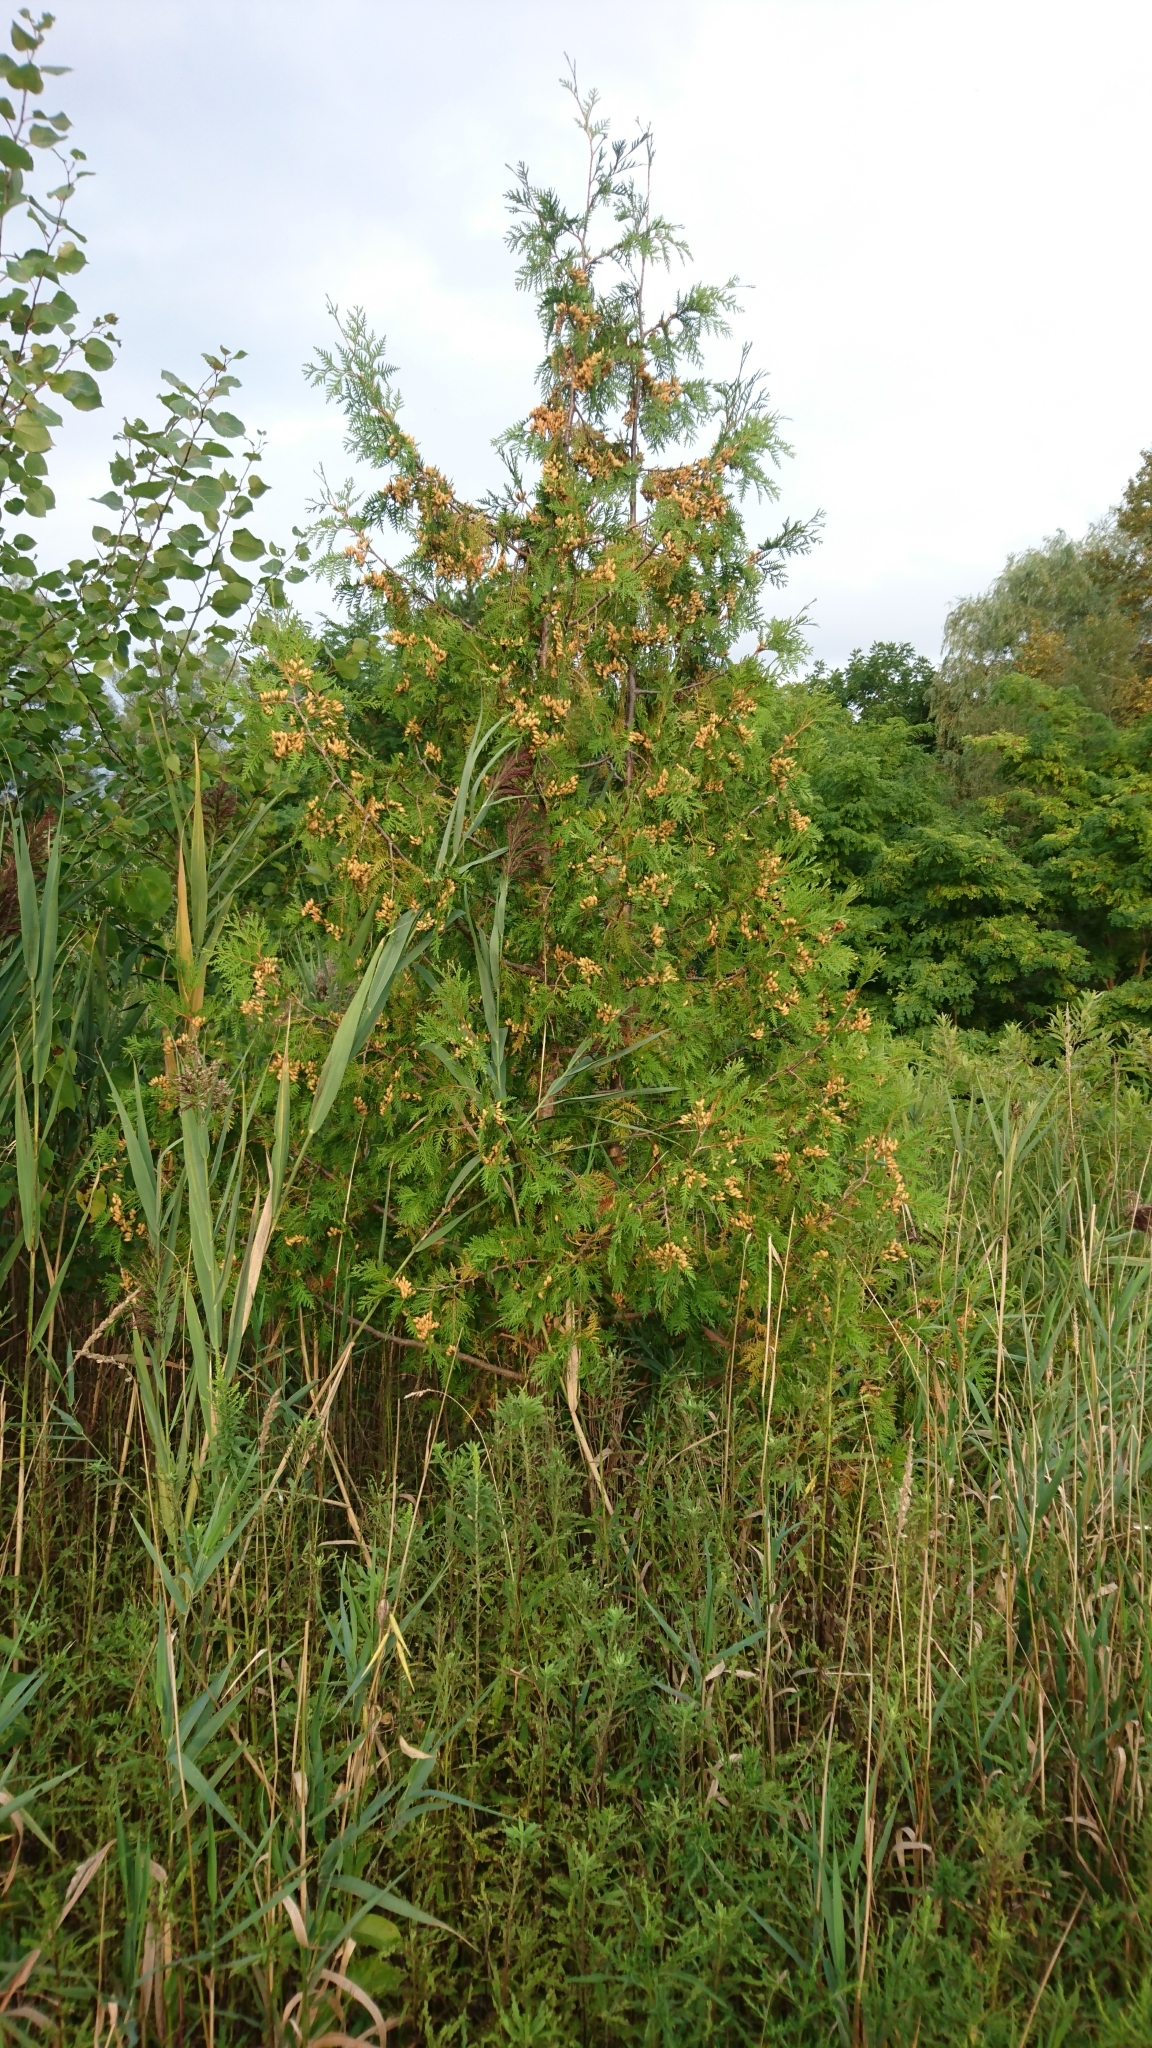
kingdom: Plantae
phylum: Tracheophyta
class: Pinopsida
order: Pinales
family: Cupressaceae
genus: Thuja
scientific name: Thuja occidentalis
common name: Northern white-cedar
